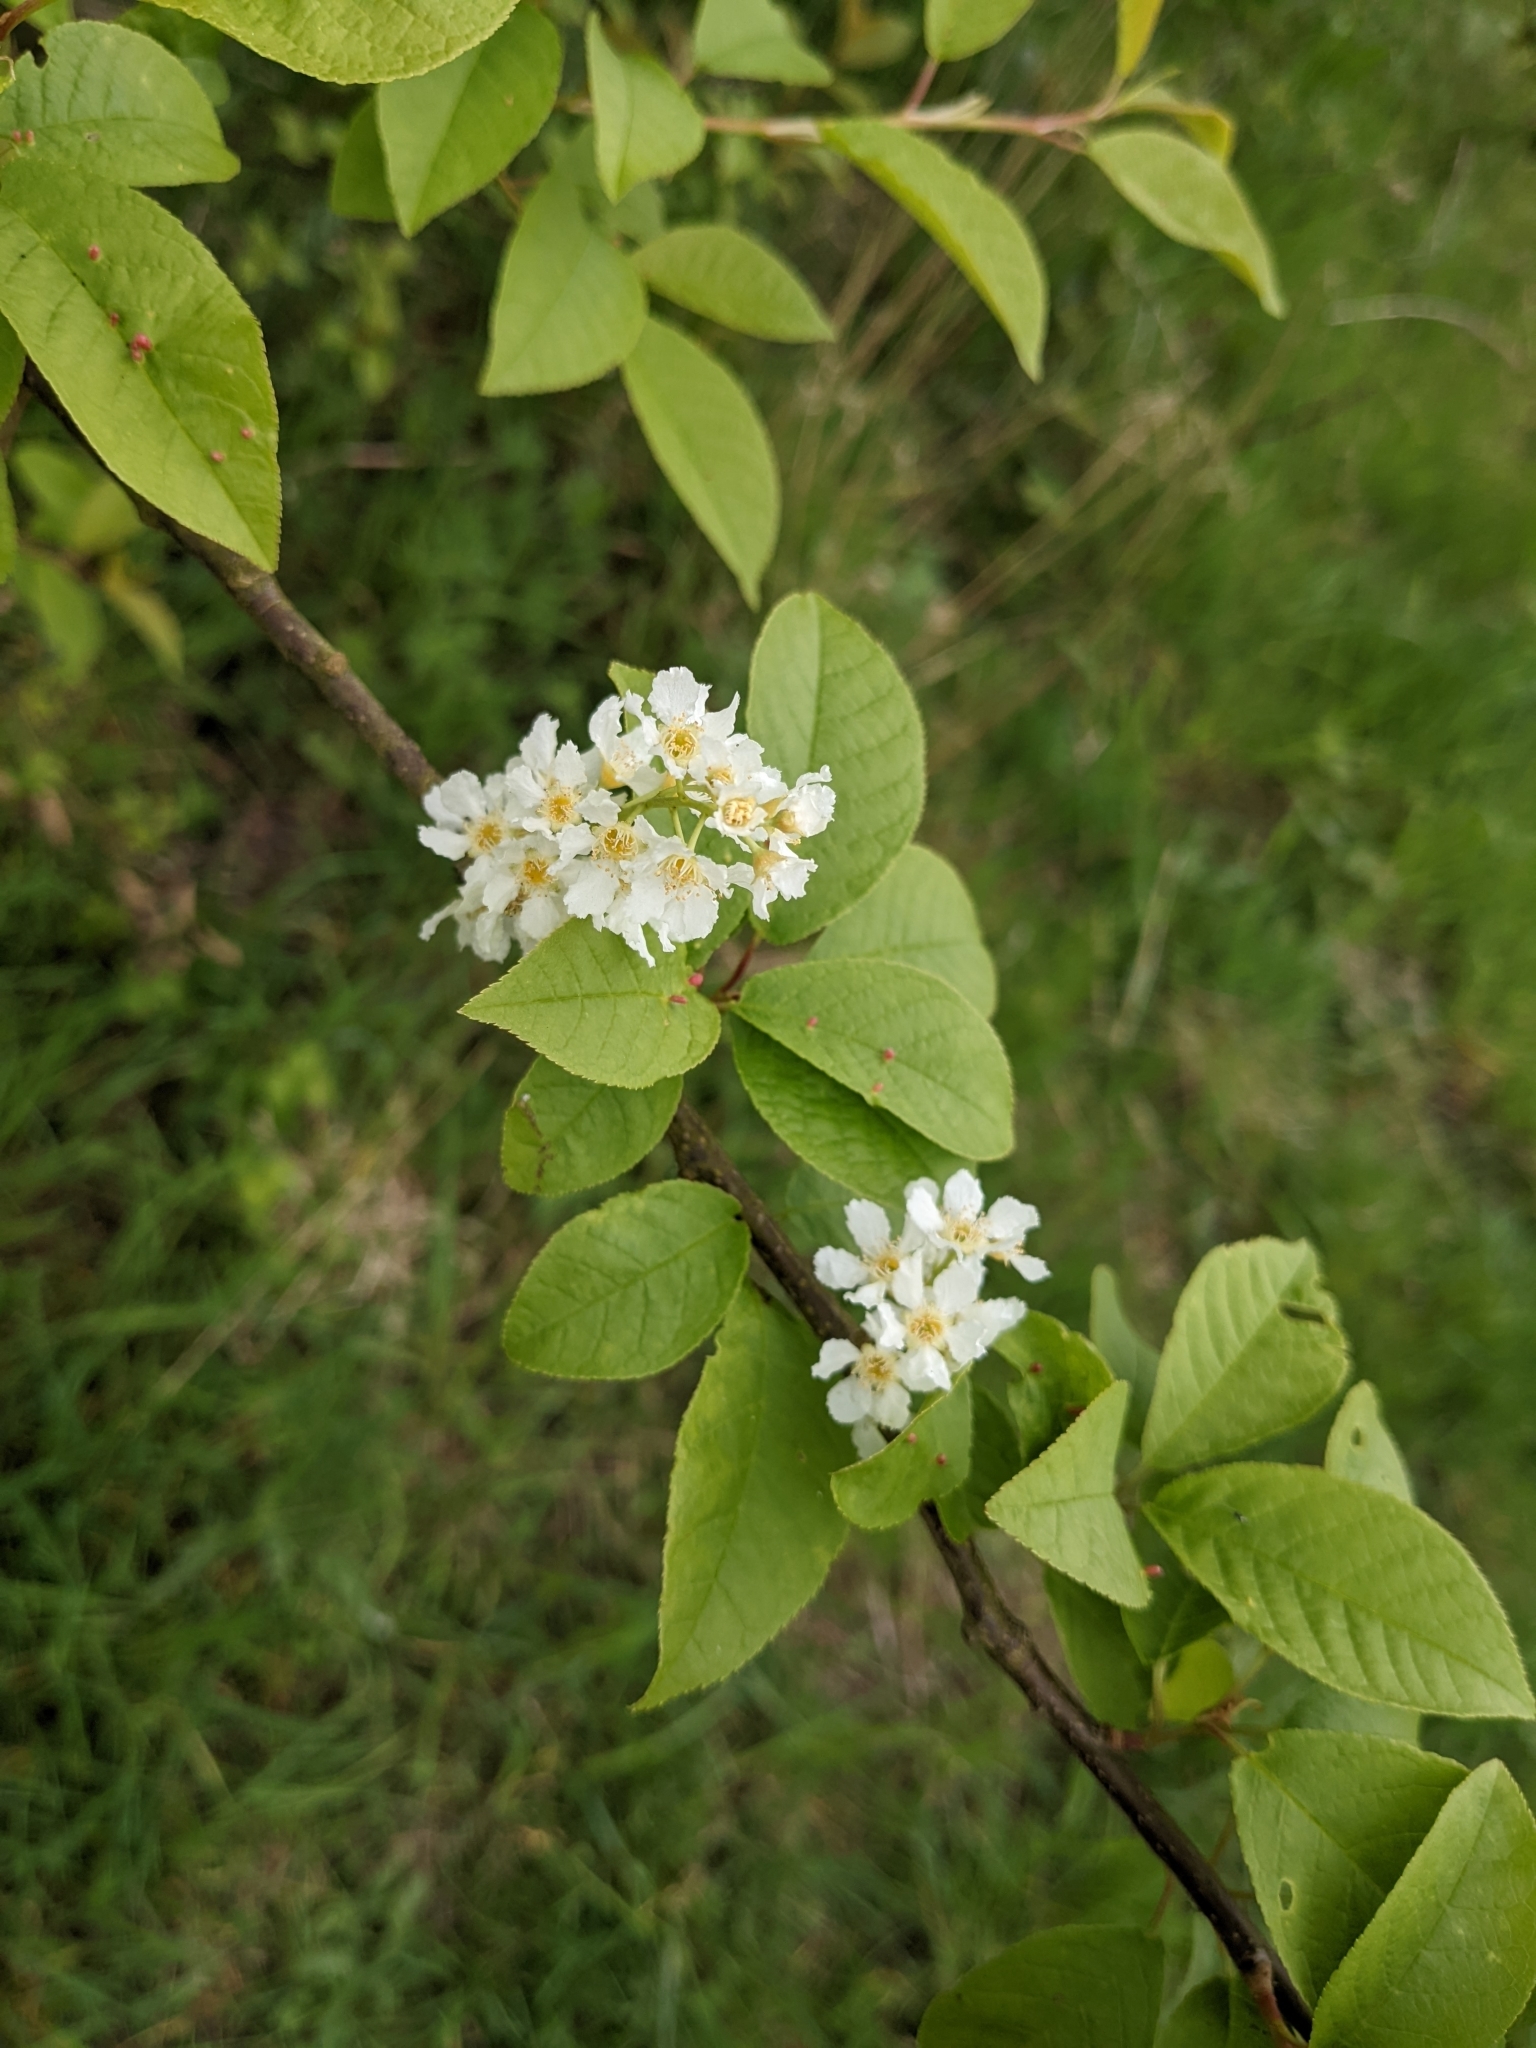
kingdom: Plantae
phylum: Tracheophyta
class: Magnoliopsida
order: Rosales
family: Rosaceae
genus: Prunus
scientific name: Prunus padus
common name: Bird cherry
